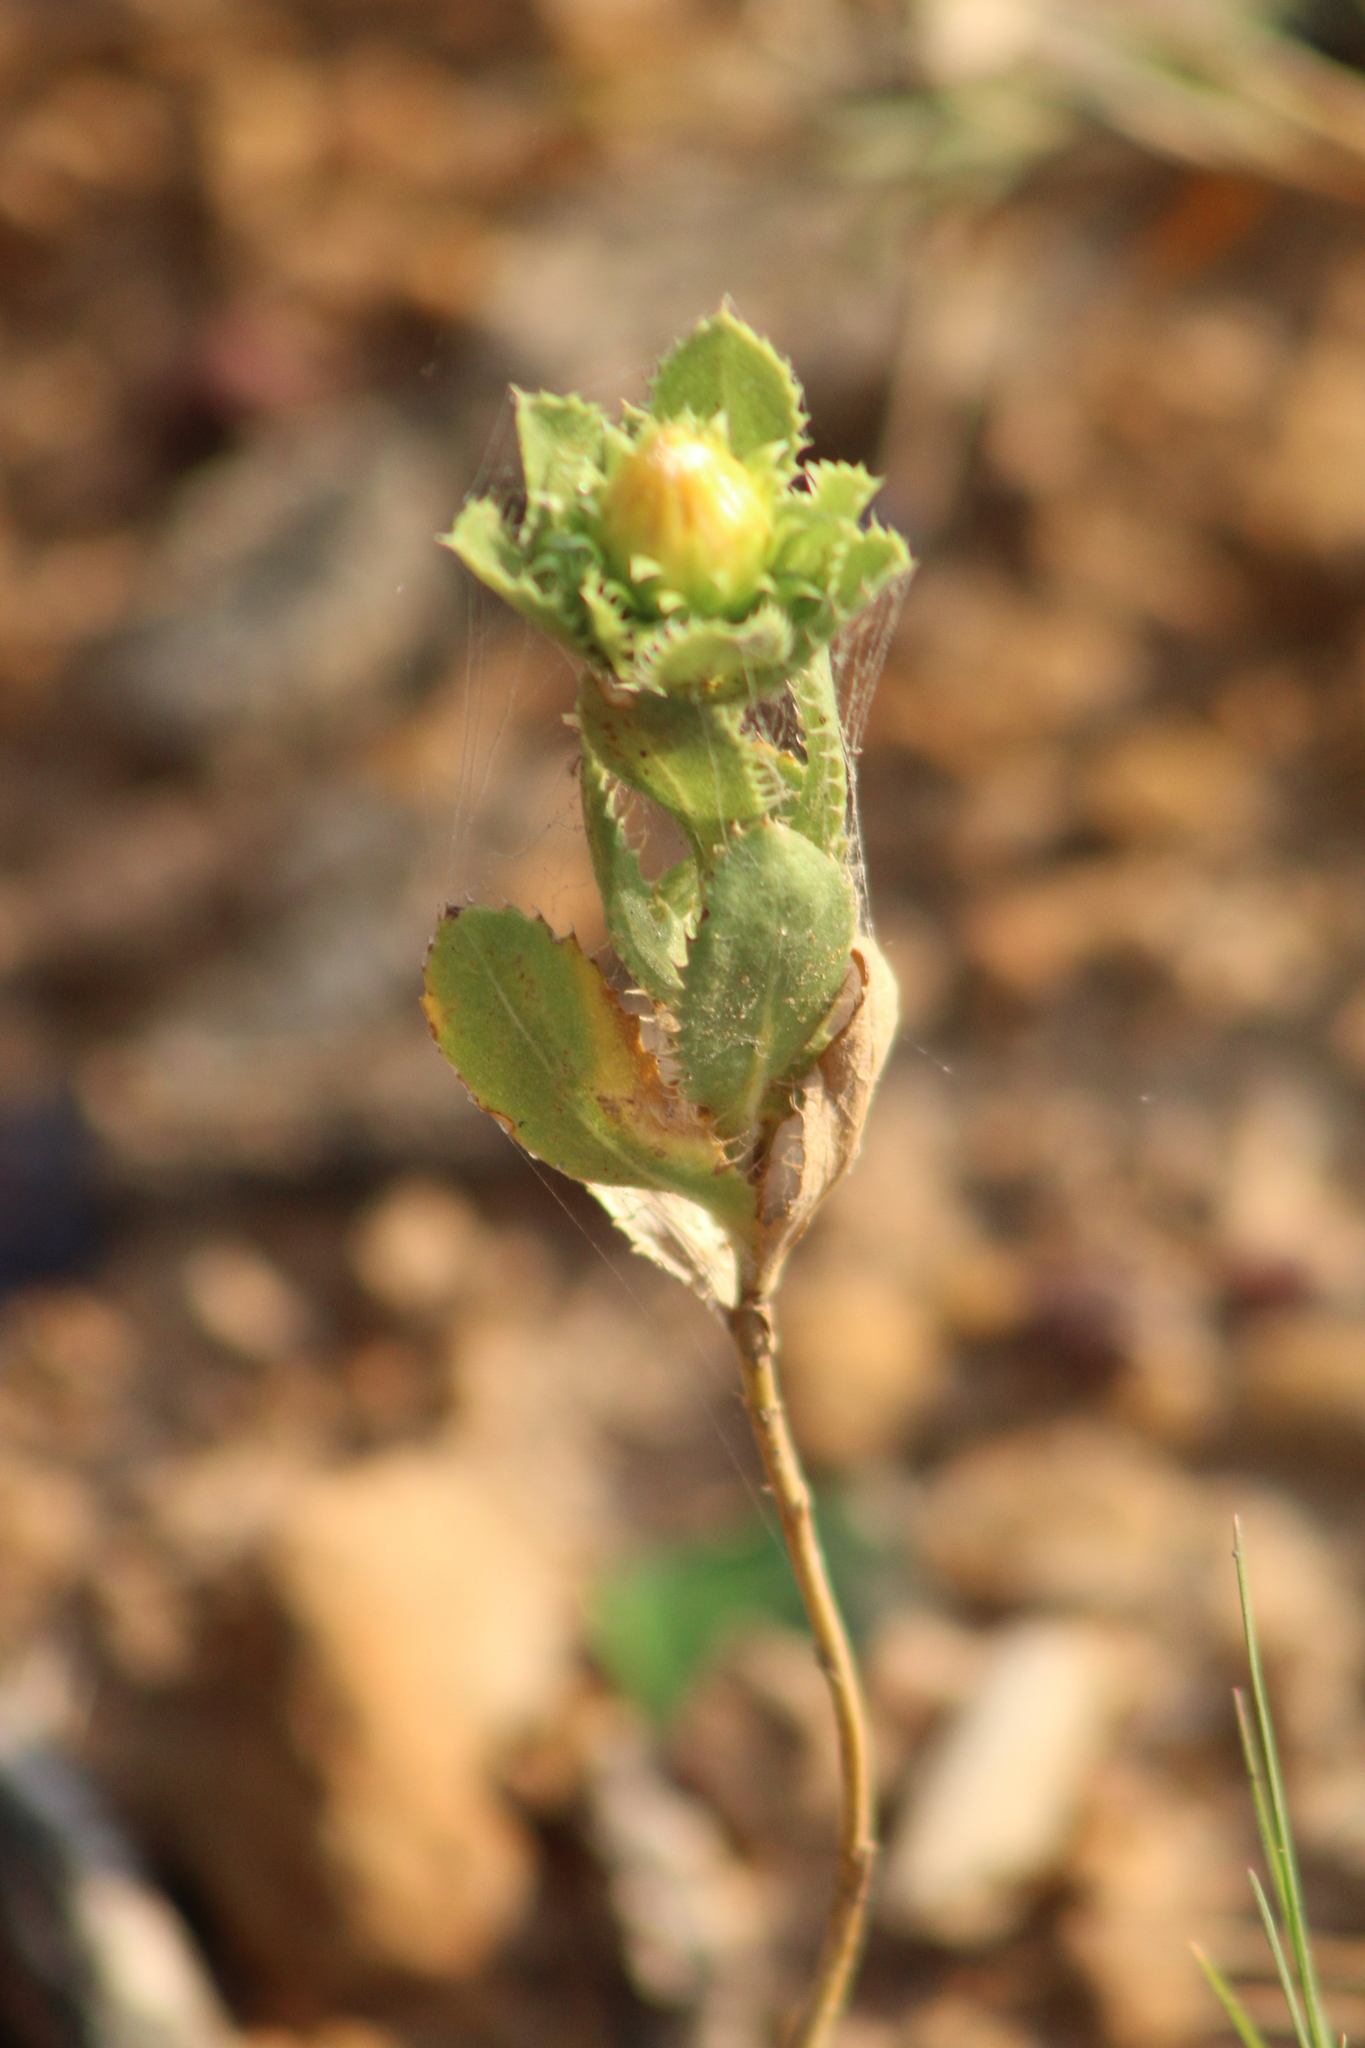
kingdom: Plantae
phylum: Tracheophyta
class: Magnoliopsida
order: Asterales
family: Asteraceae
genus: Grindelia
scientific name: Grindelia ciliata
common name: Goldenweed
